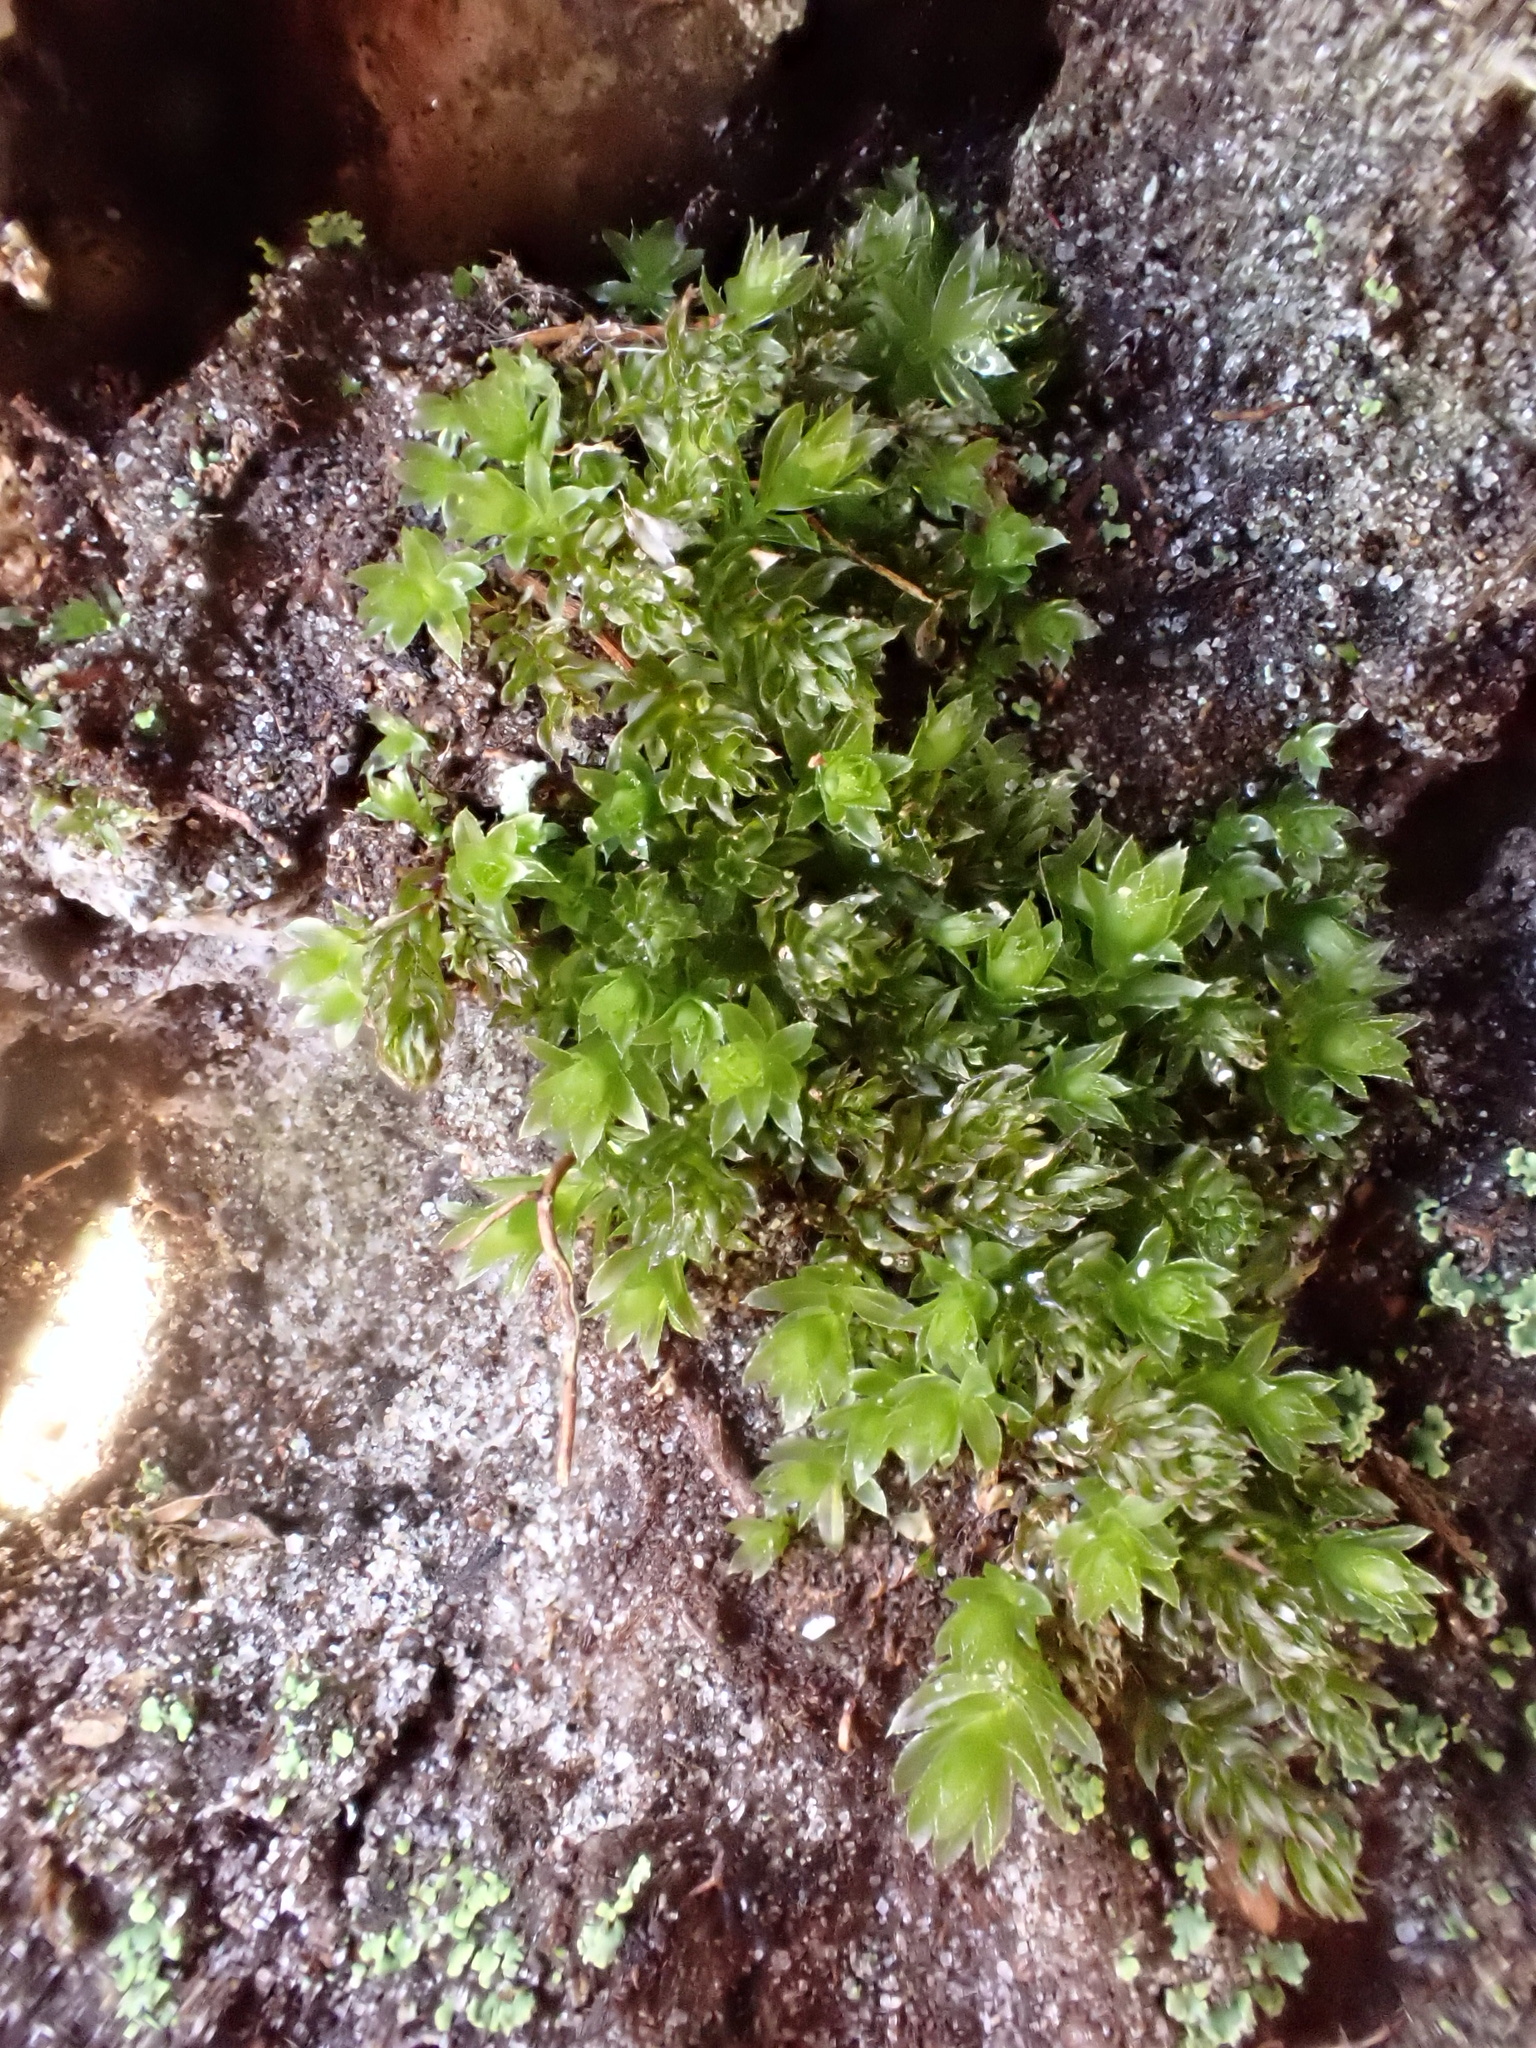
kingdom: Plantae
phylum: Bryophyta
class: Bryopsida
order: Bryales
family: Mniaceae
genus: Mnium
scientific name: Mnium hornum
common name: Swan's-neck leafy moss
